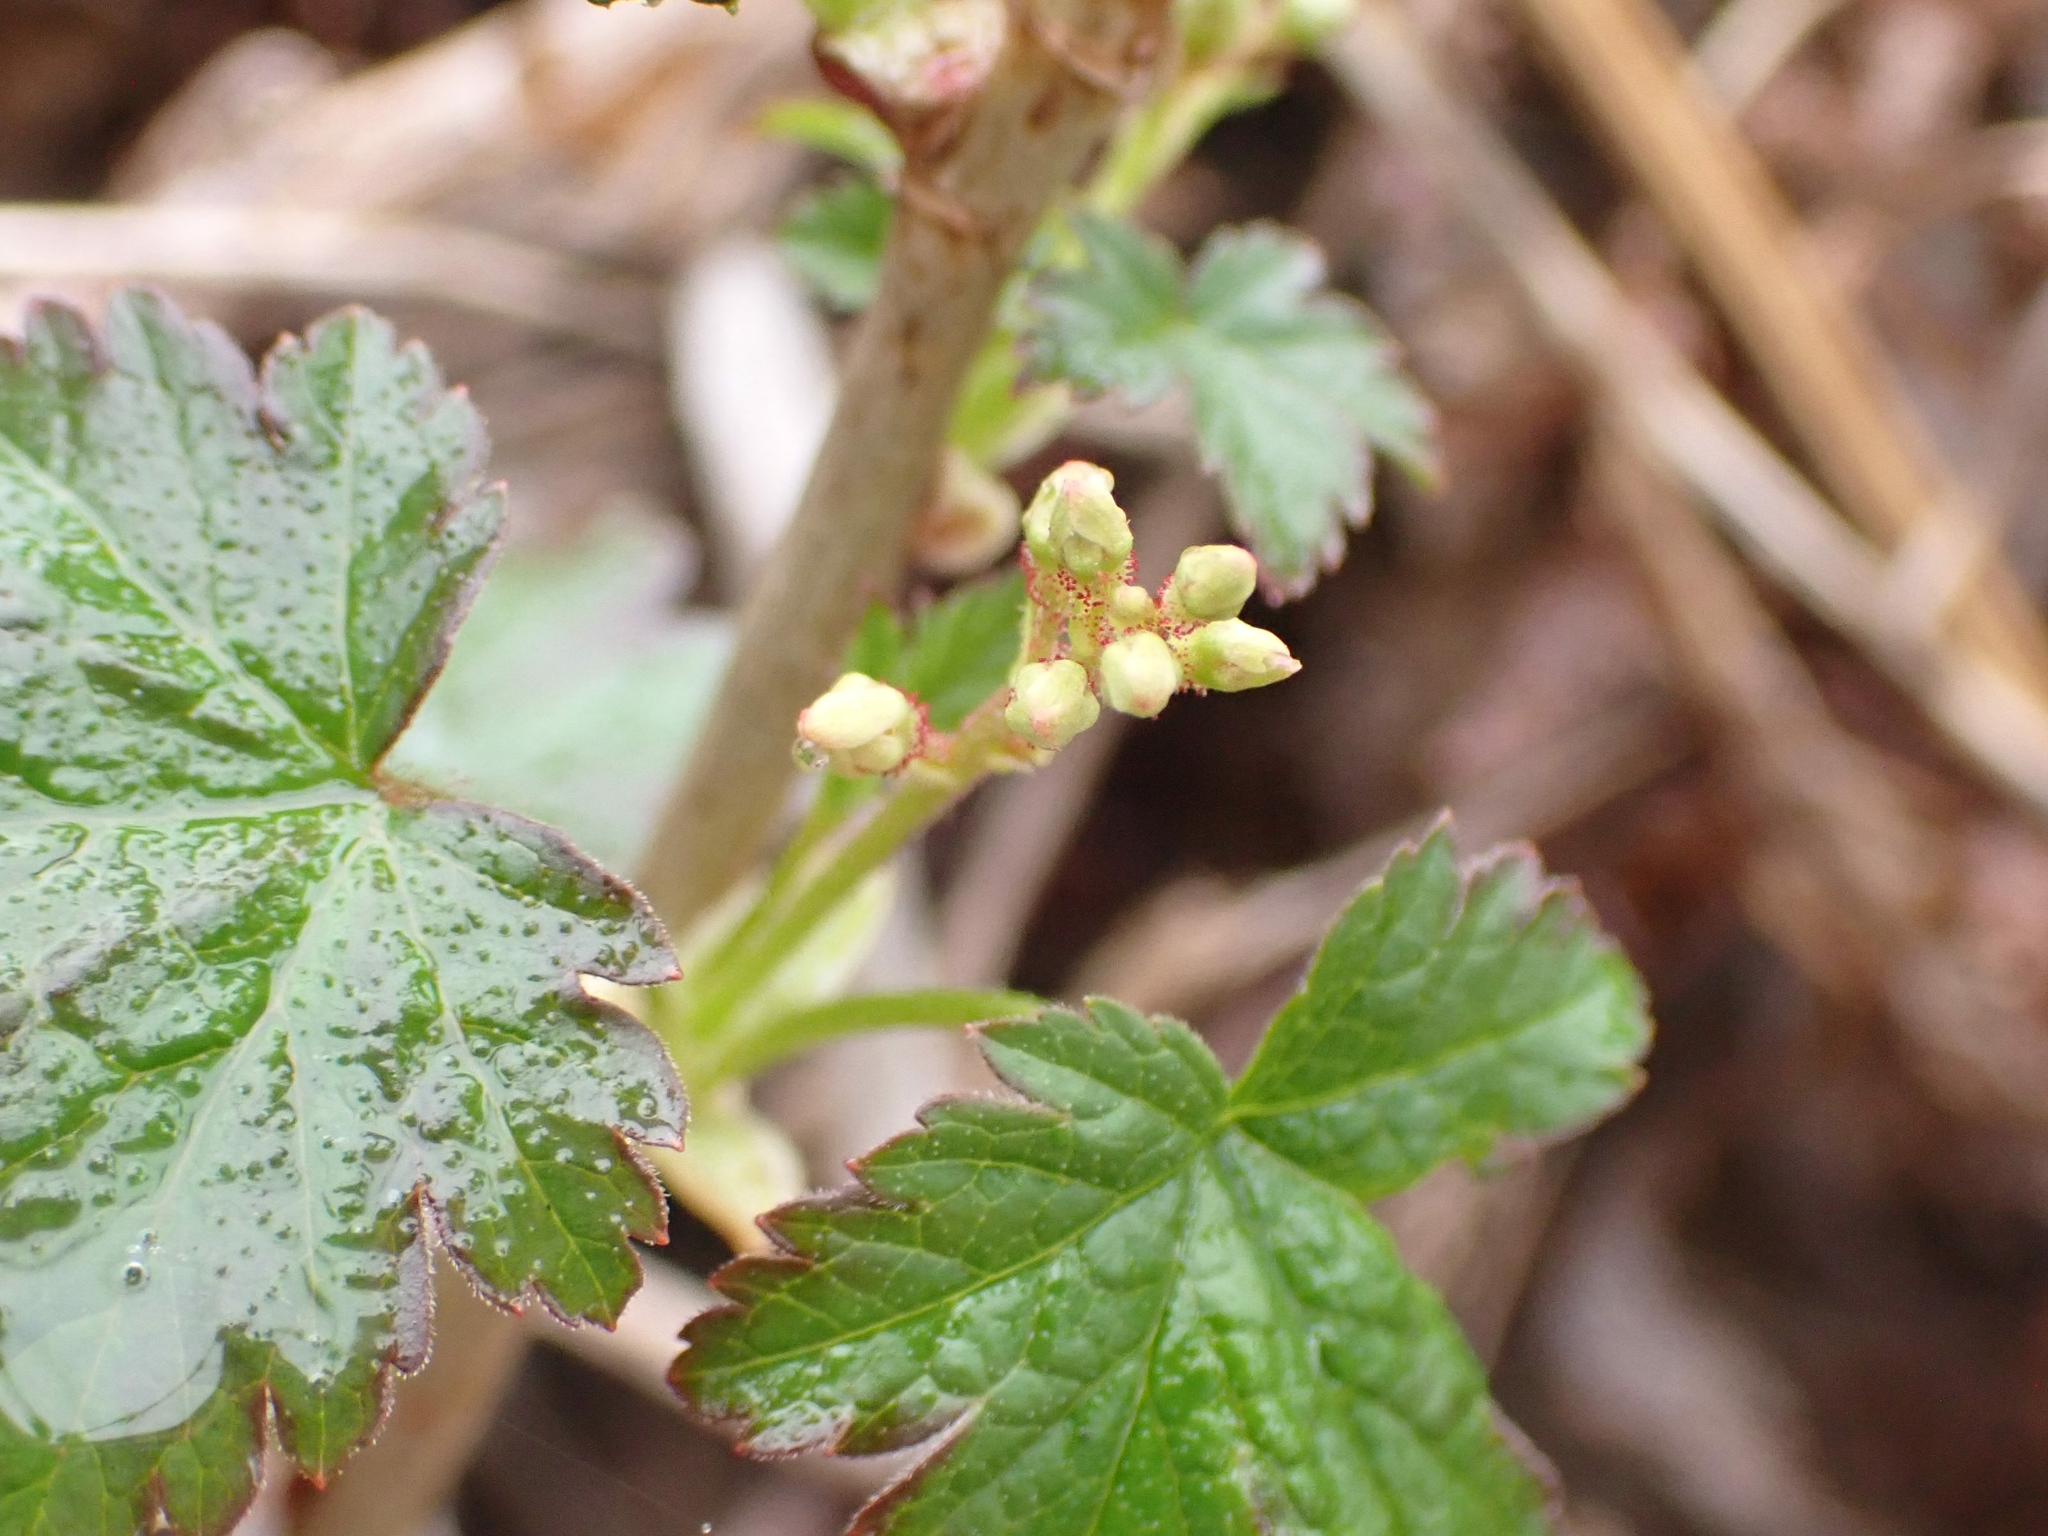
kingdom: Plantae
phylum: Tracheophyta
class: Magnoliopsida
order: Saxifragales
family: Grossulariaceae
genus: Ribes
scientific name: Ribes glandulosum
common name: Skunk currant
